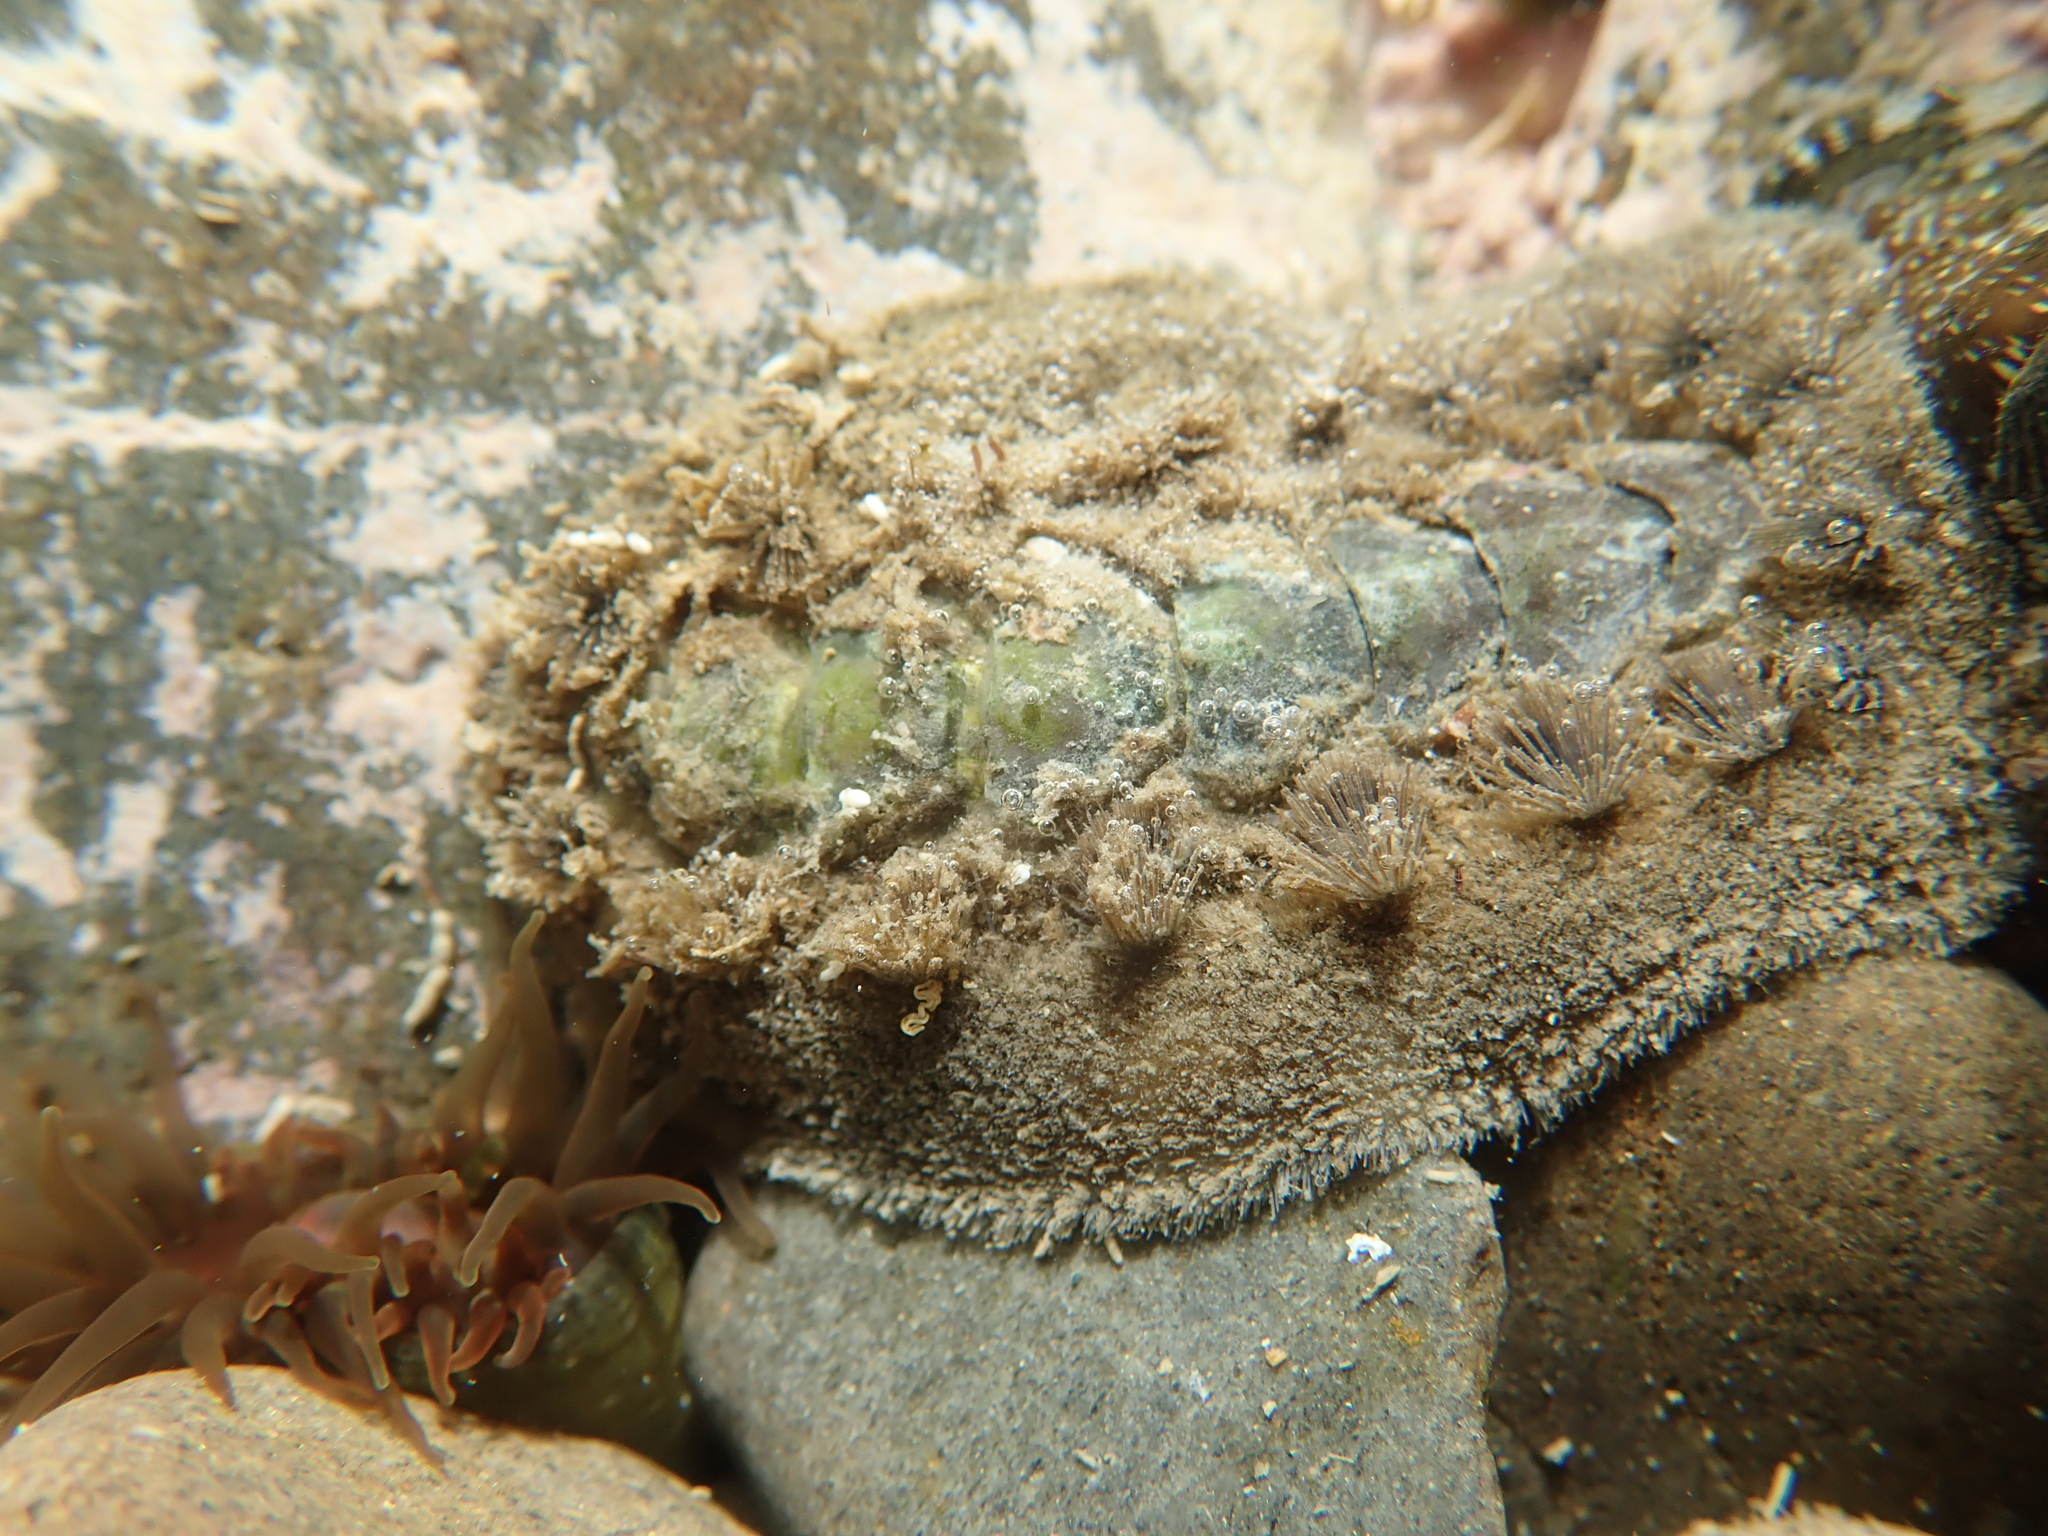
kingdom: Animalia
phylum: Mollusca
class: Polyplacophora
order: Chitonida
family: Acanthochitonidae
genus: Acanthochitona
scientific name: Acanthochitona zelandica
